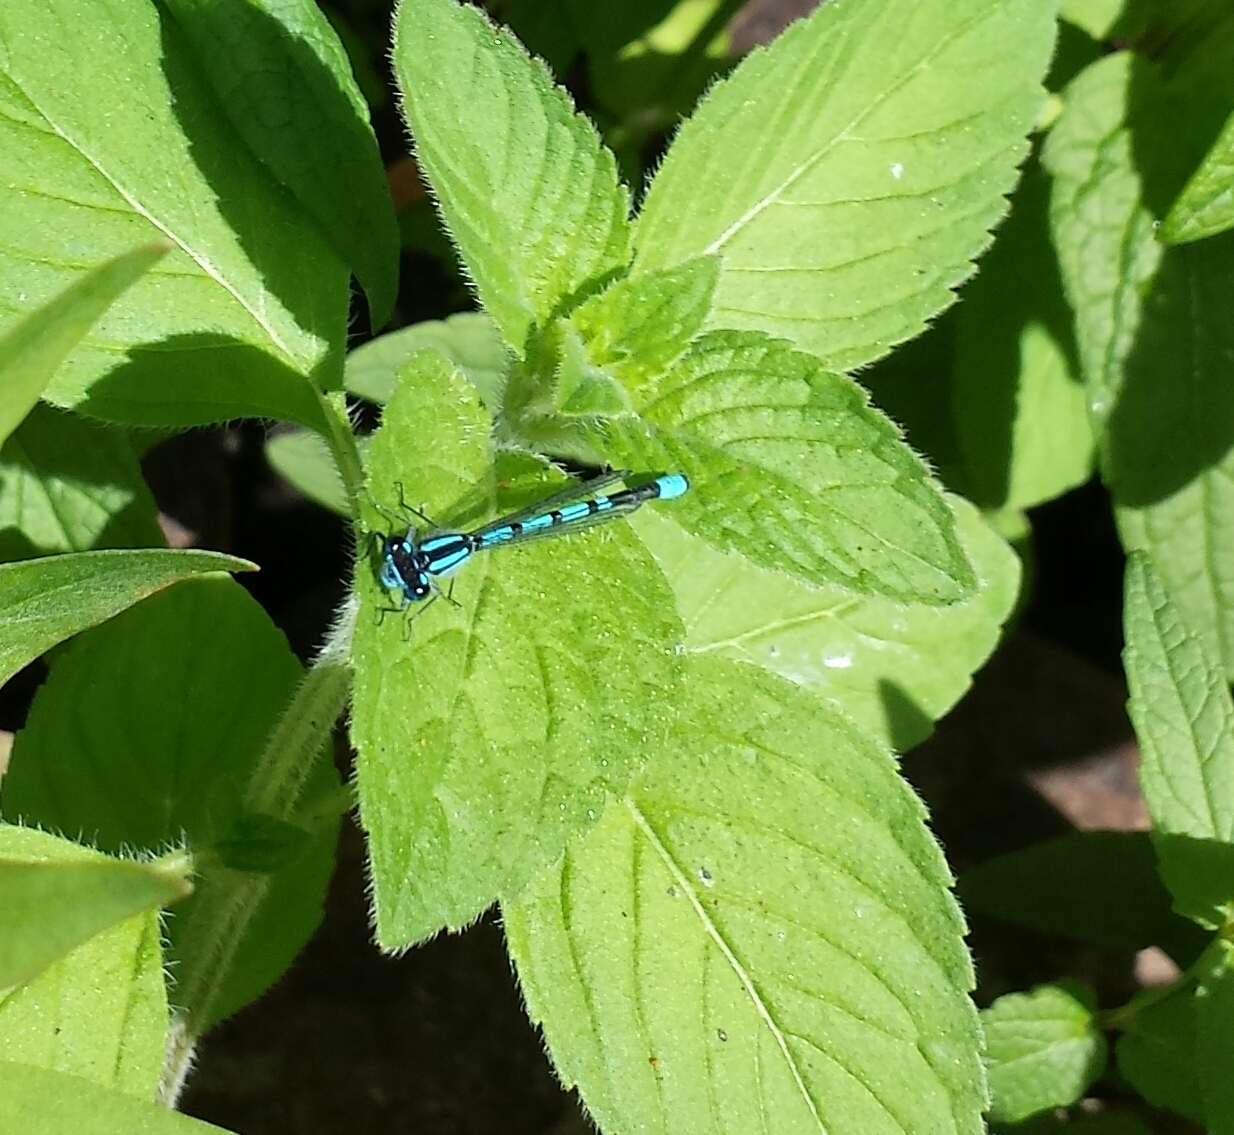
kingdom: Animalia
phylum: Arthropoda
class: Insecta
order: Odonata
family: Coenagrionidae
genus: Enallagma
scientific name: Enallagma
